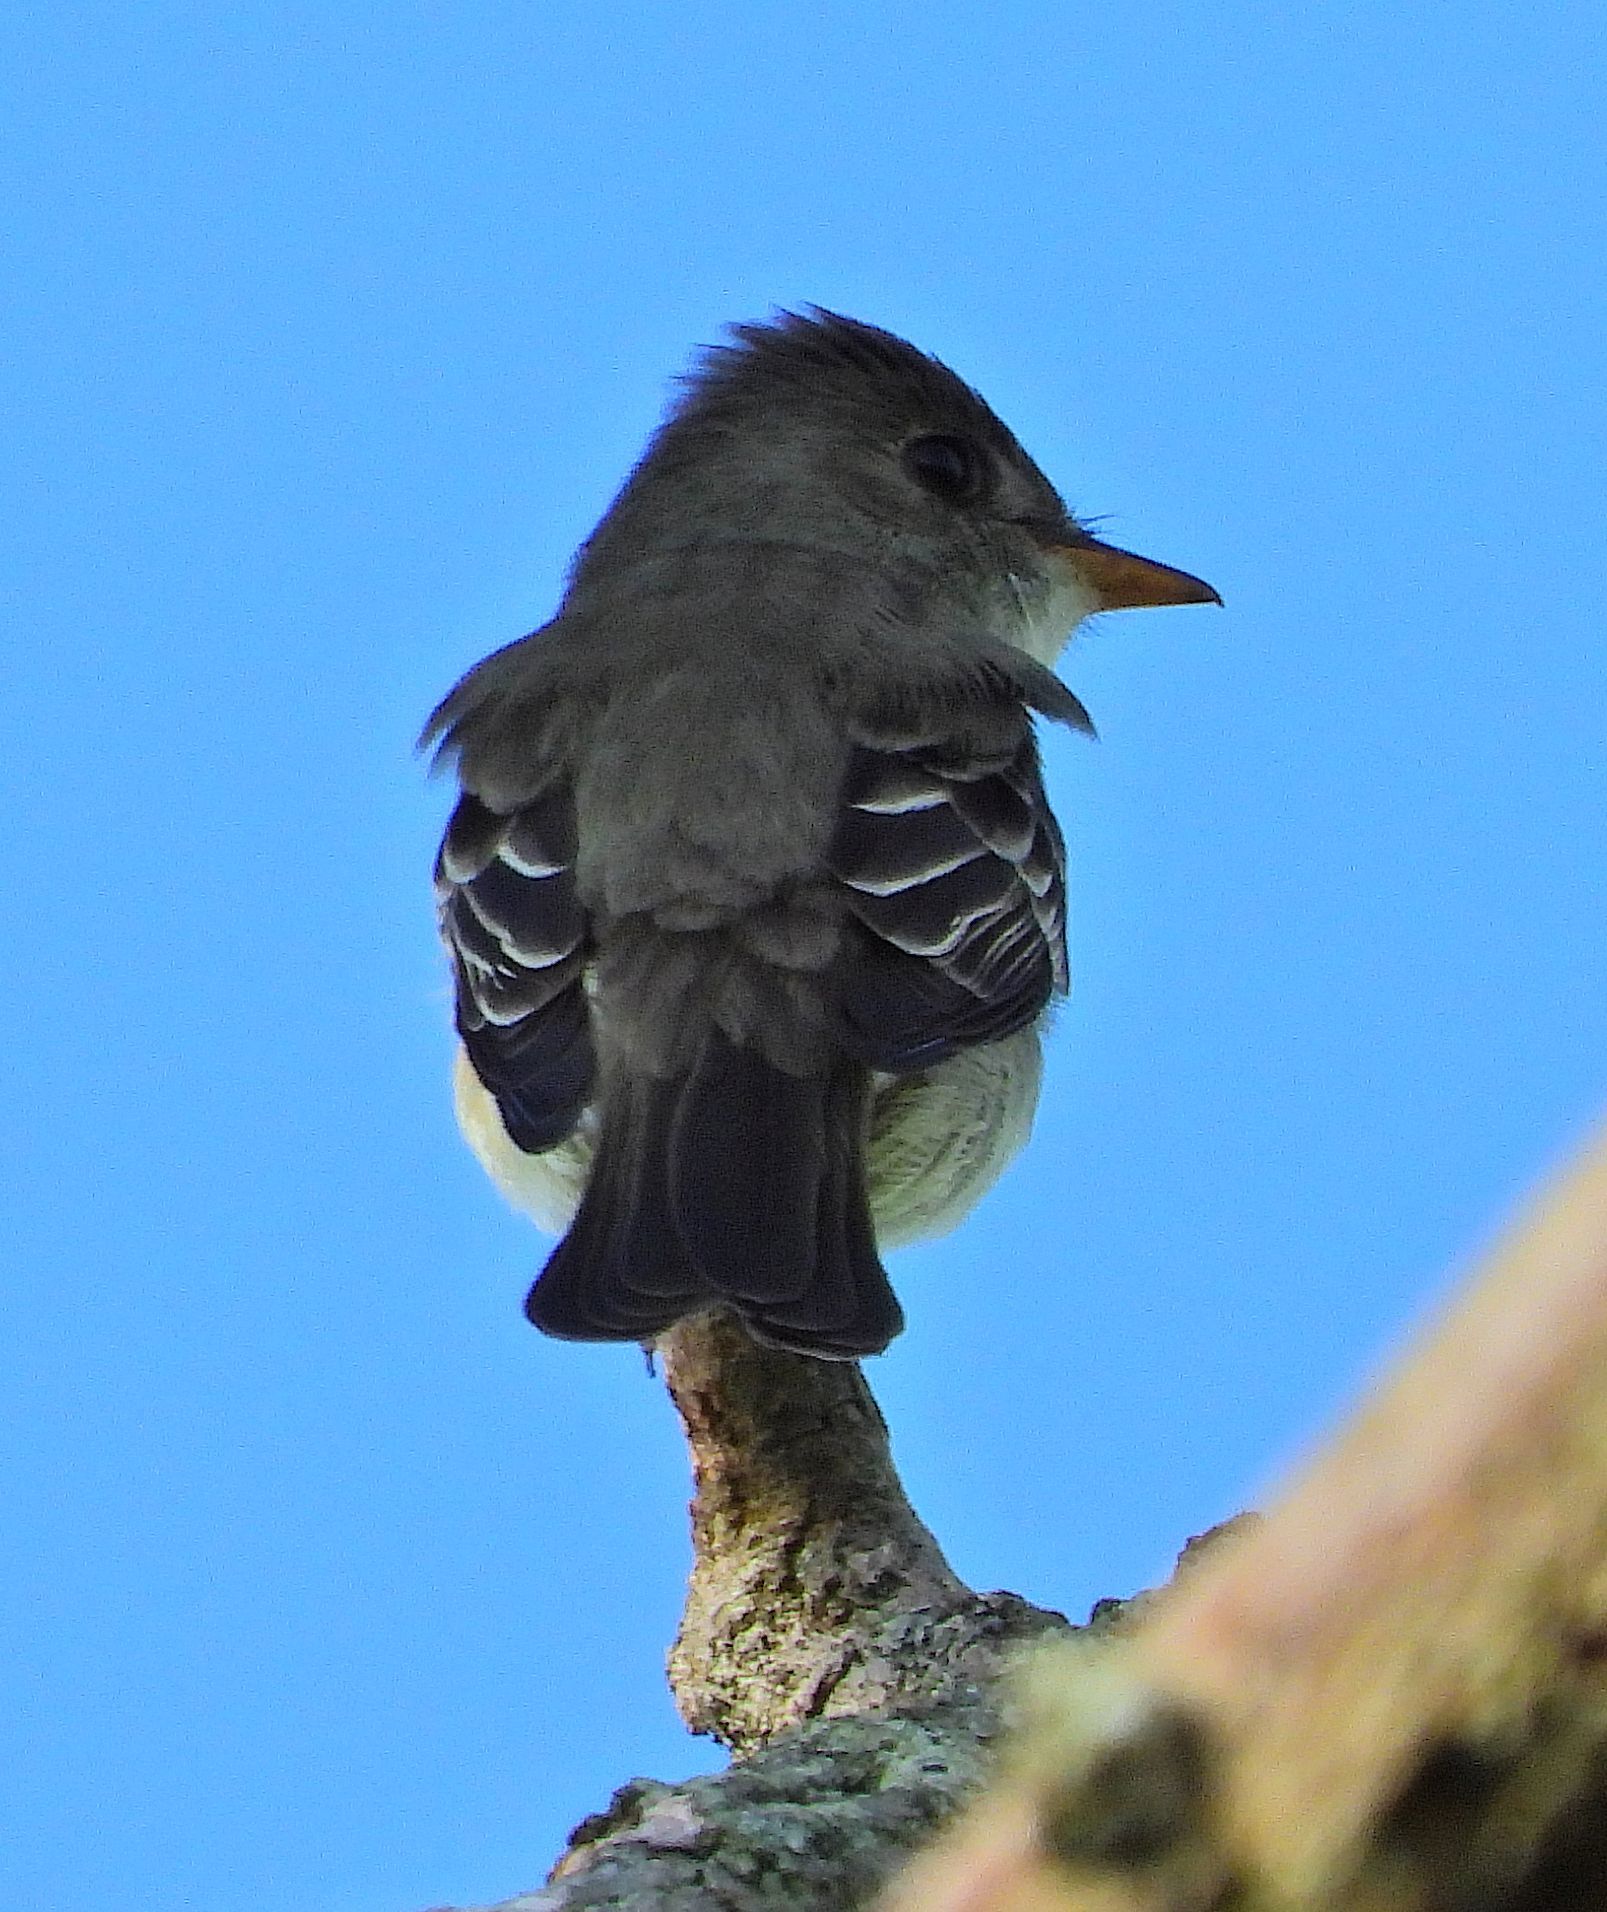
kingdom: Animalia
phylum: Chordata
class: Aves
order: Passeriformes
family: Tyrannidae
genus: Contopus
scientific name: Contopus virens
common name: Eastern wood-pewee
